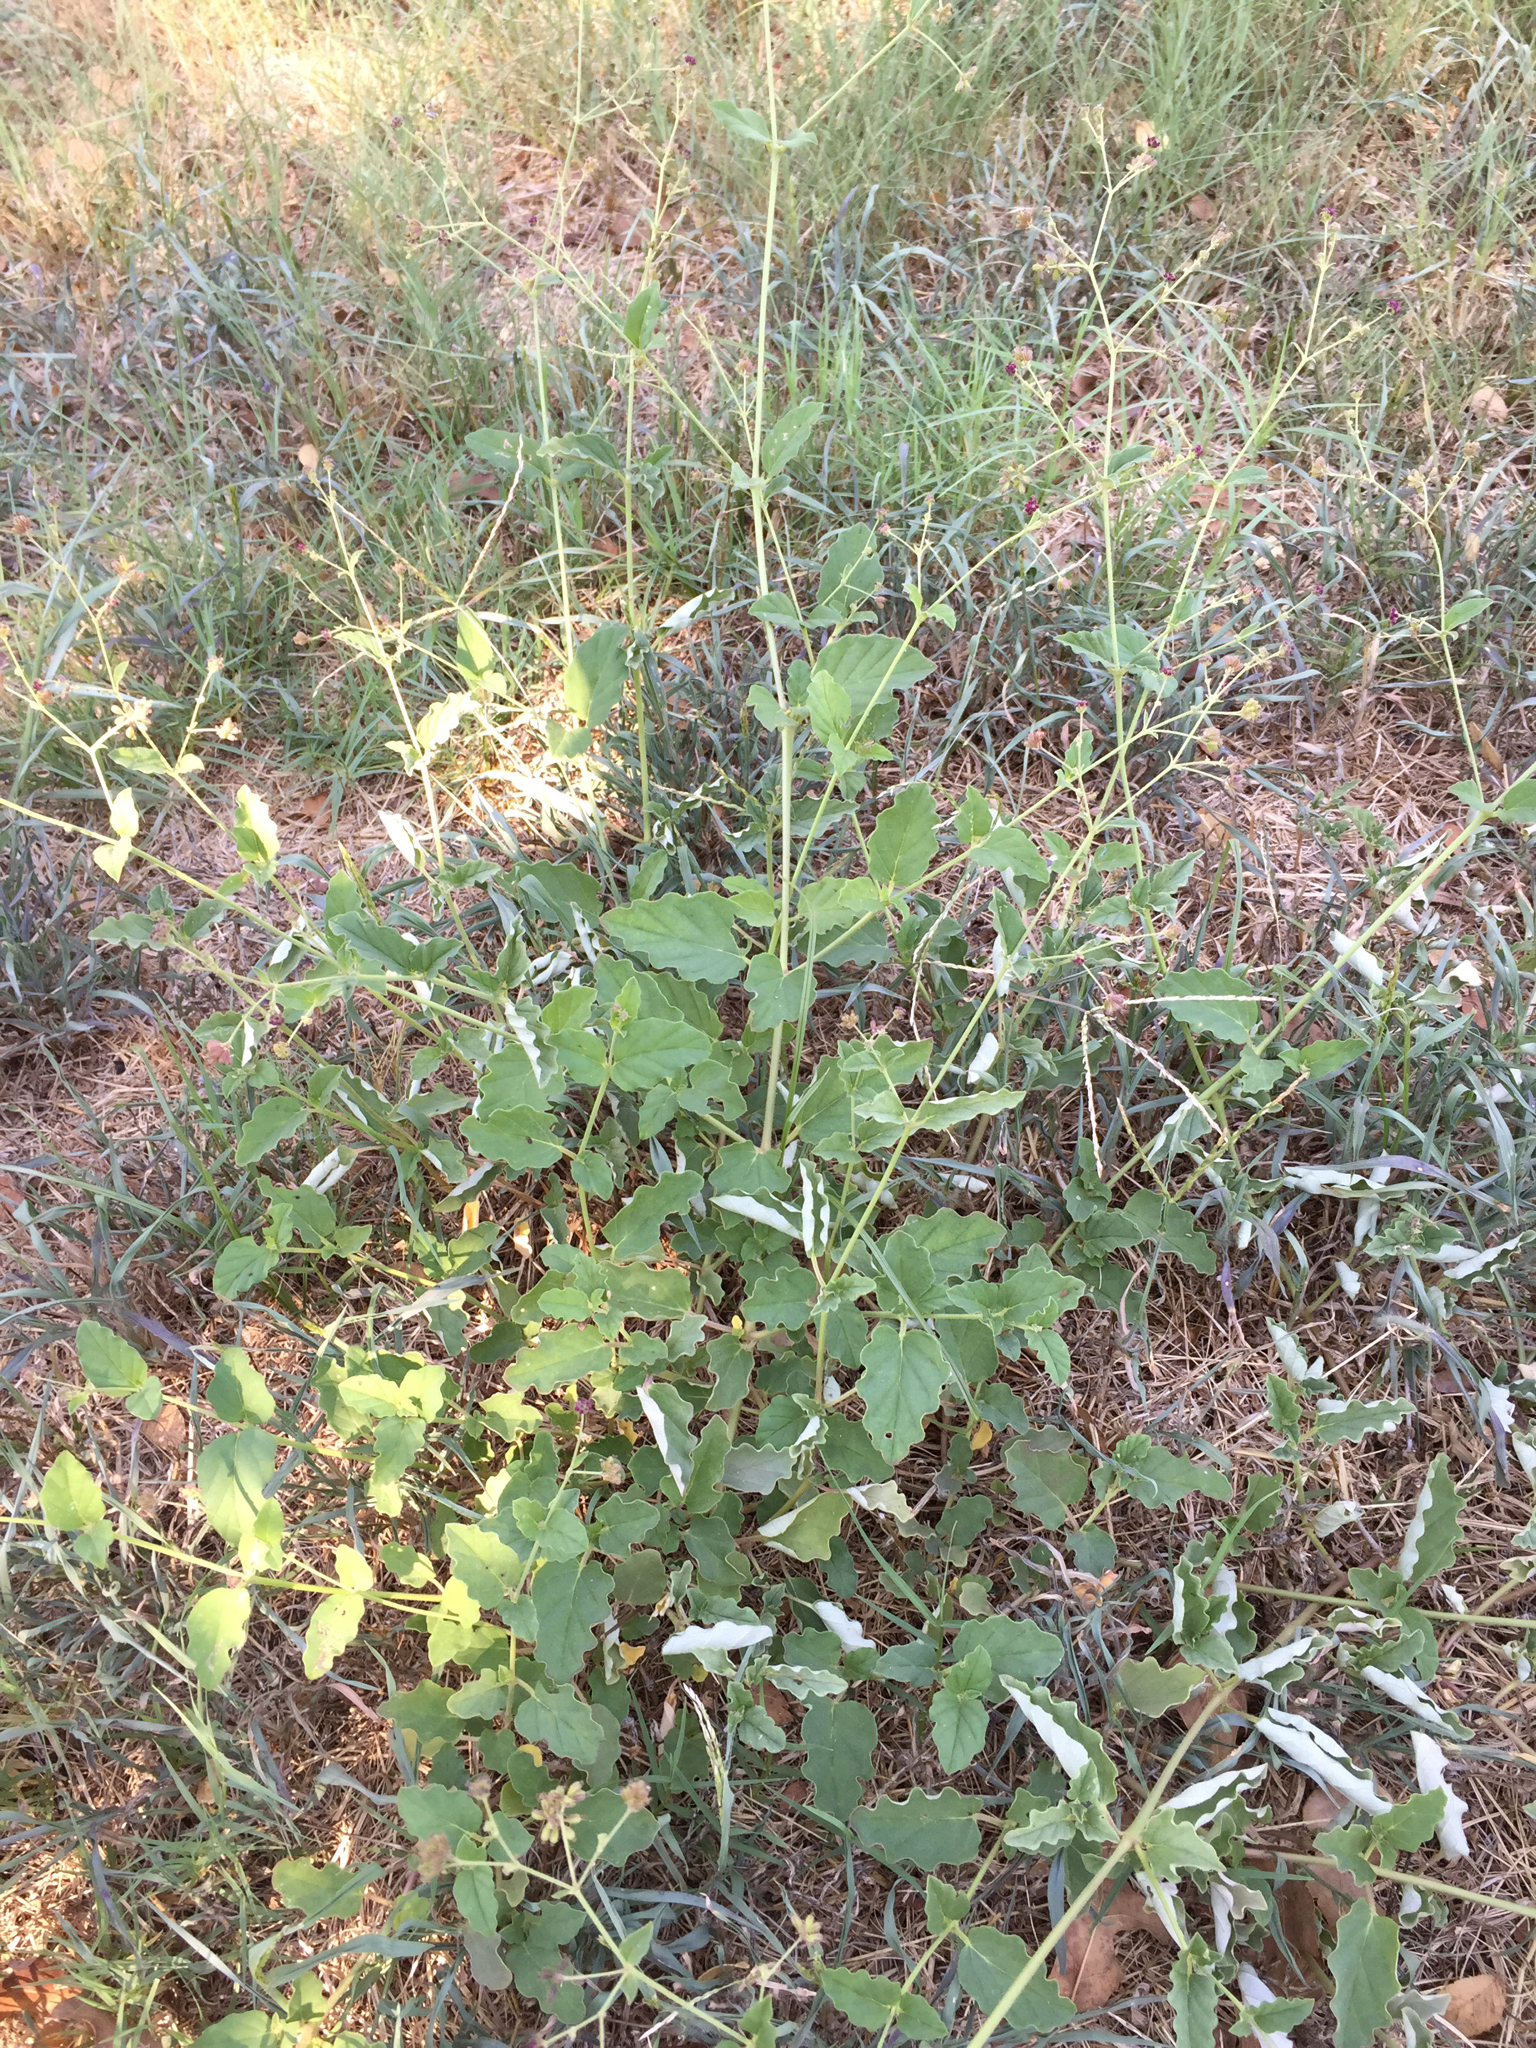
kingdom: Plantae
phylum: Tracheophyta
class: Magnoliopsida
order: Caryophyllales
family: Nyctaginaceae
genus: Boerhavia
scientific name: Boerhavia coccinea
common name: Scarlet spiderling
